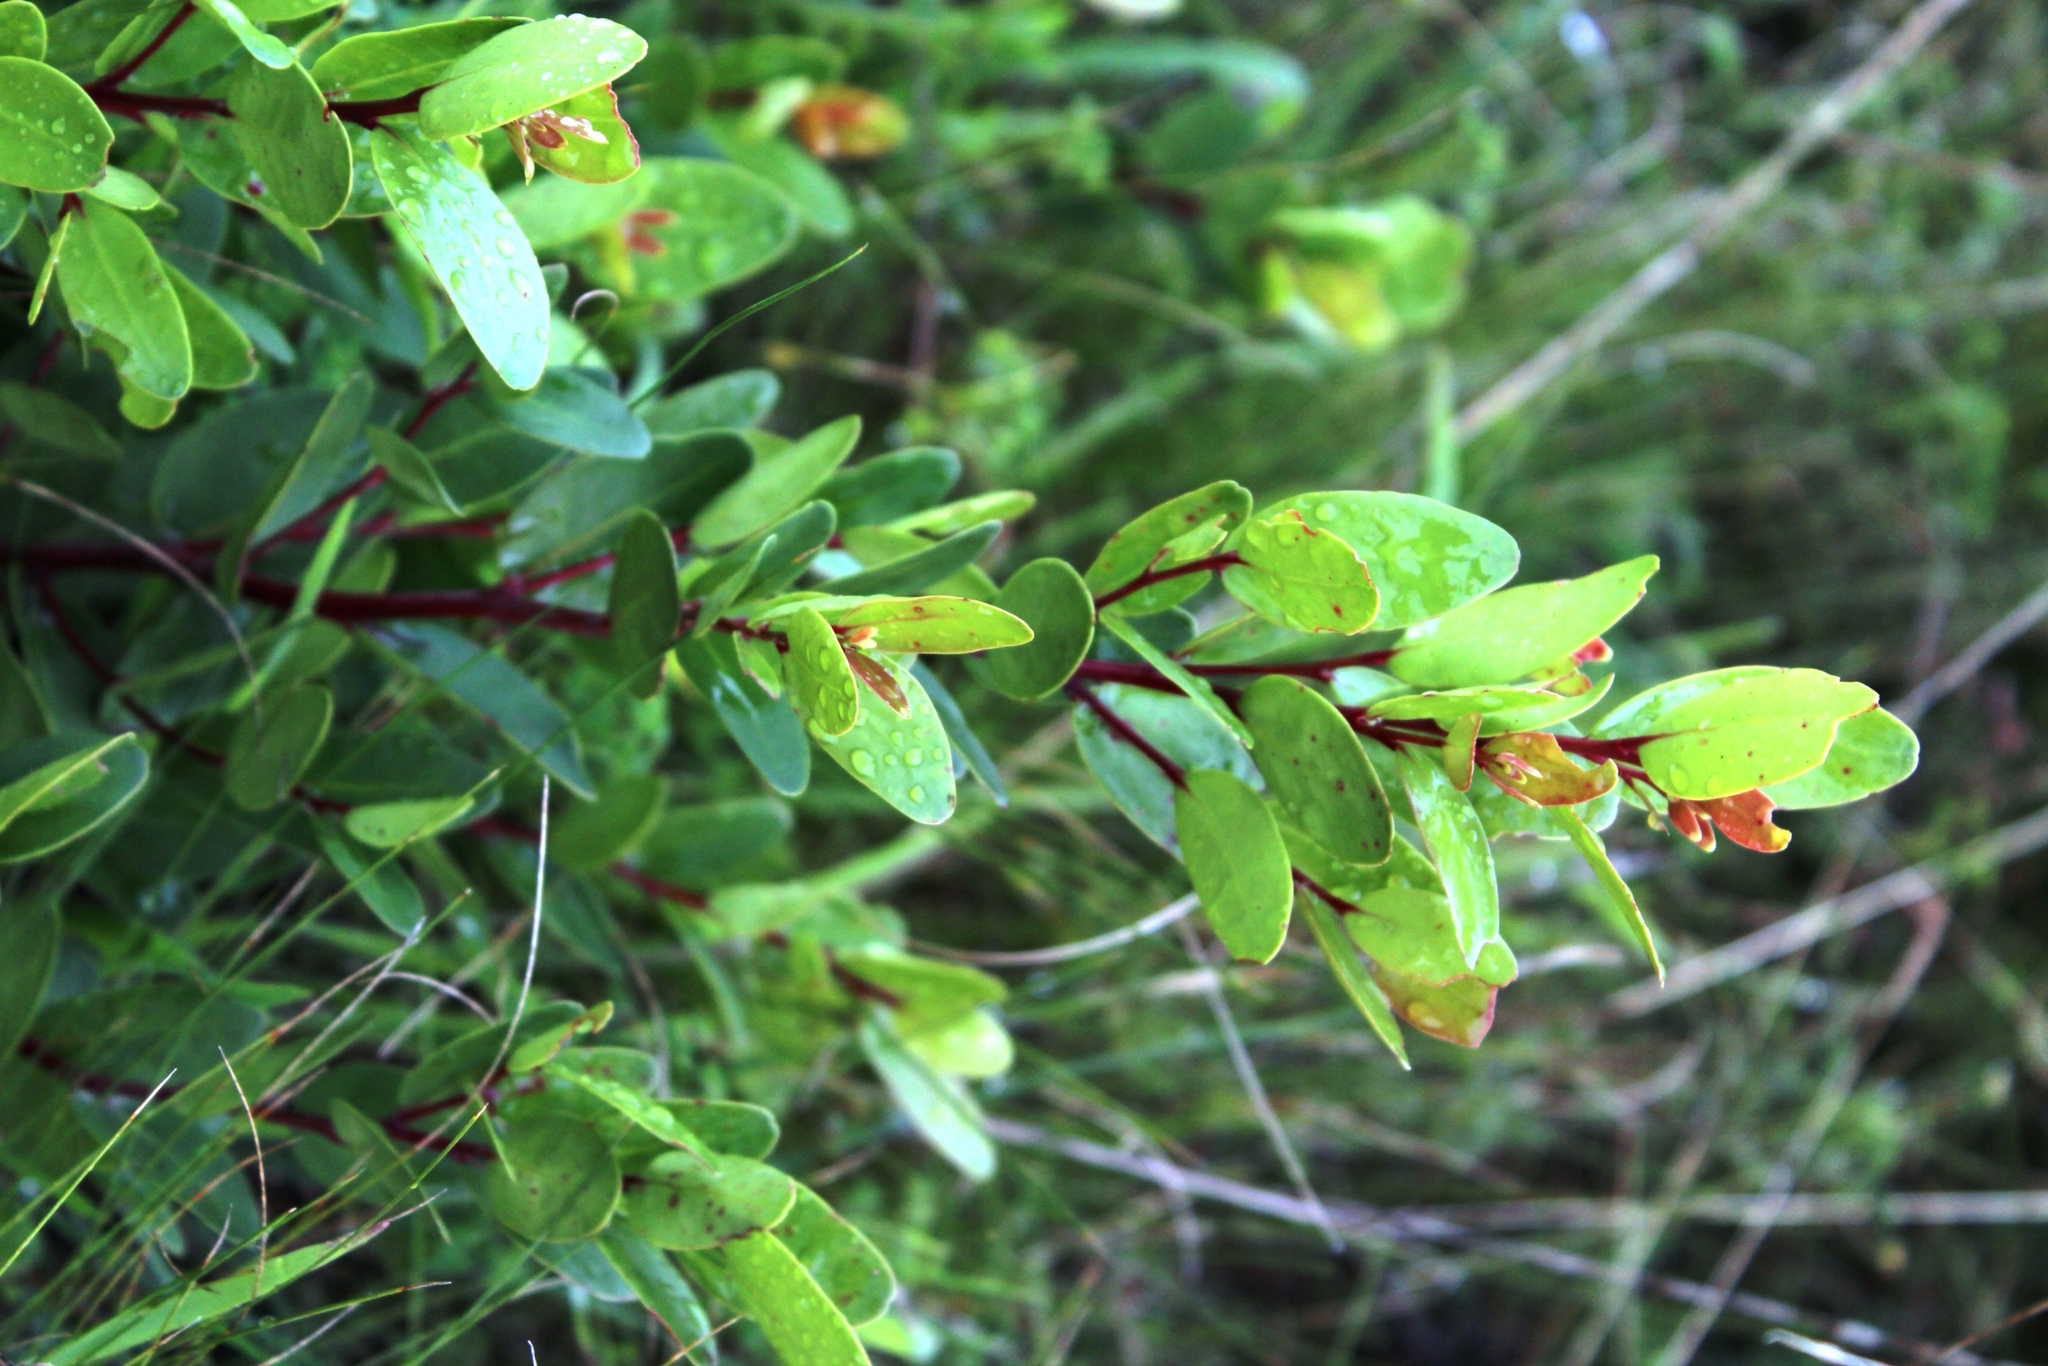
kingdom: Plantae
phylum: Tracheophyta
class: Magnoliopsida
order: Celastrales
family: Celastraceae
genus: Pterocelastrus
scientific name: Pterocelastrus tricuspidatus
